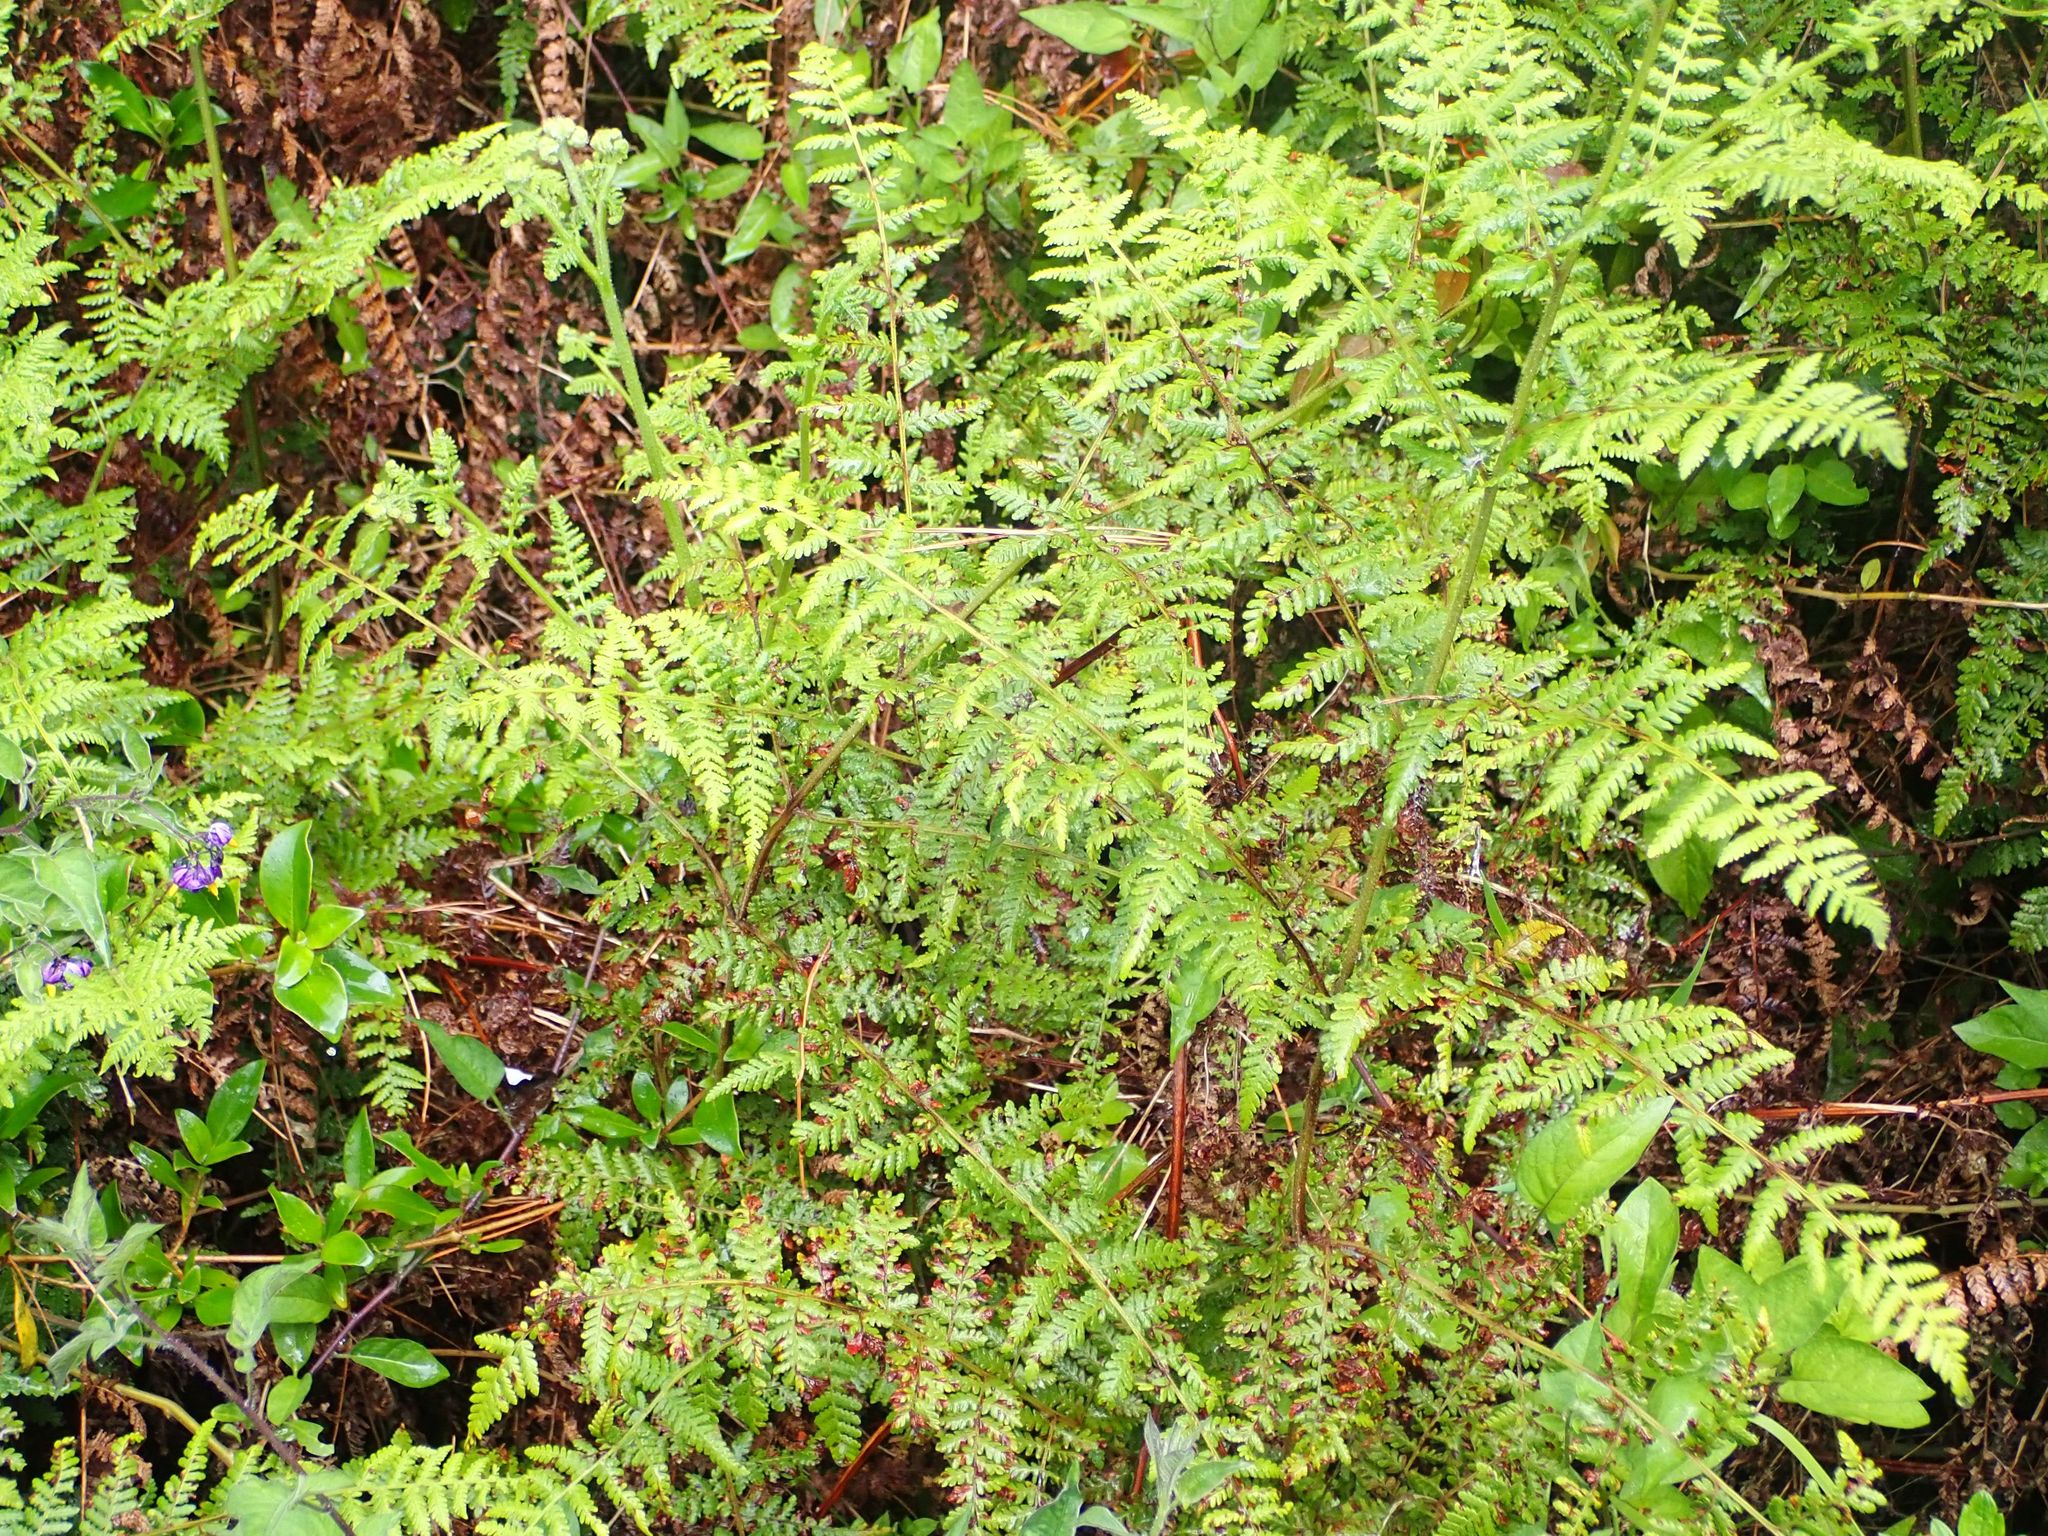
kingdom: Plantae
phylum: Tracheophyta
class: Polypodiopsida
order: Polypodiales
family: Dennstaedtiaceae
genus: Hypolepis
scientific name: Hypolepis ambigua
